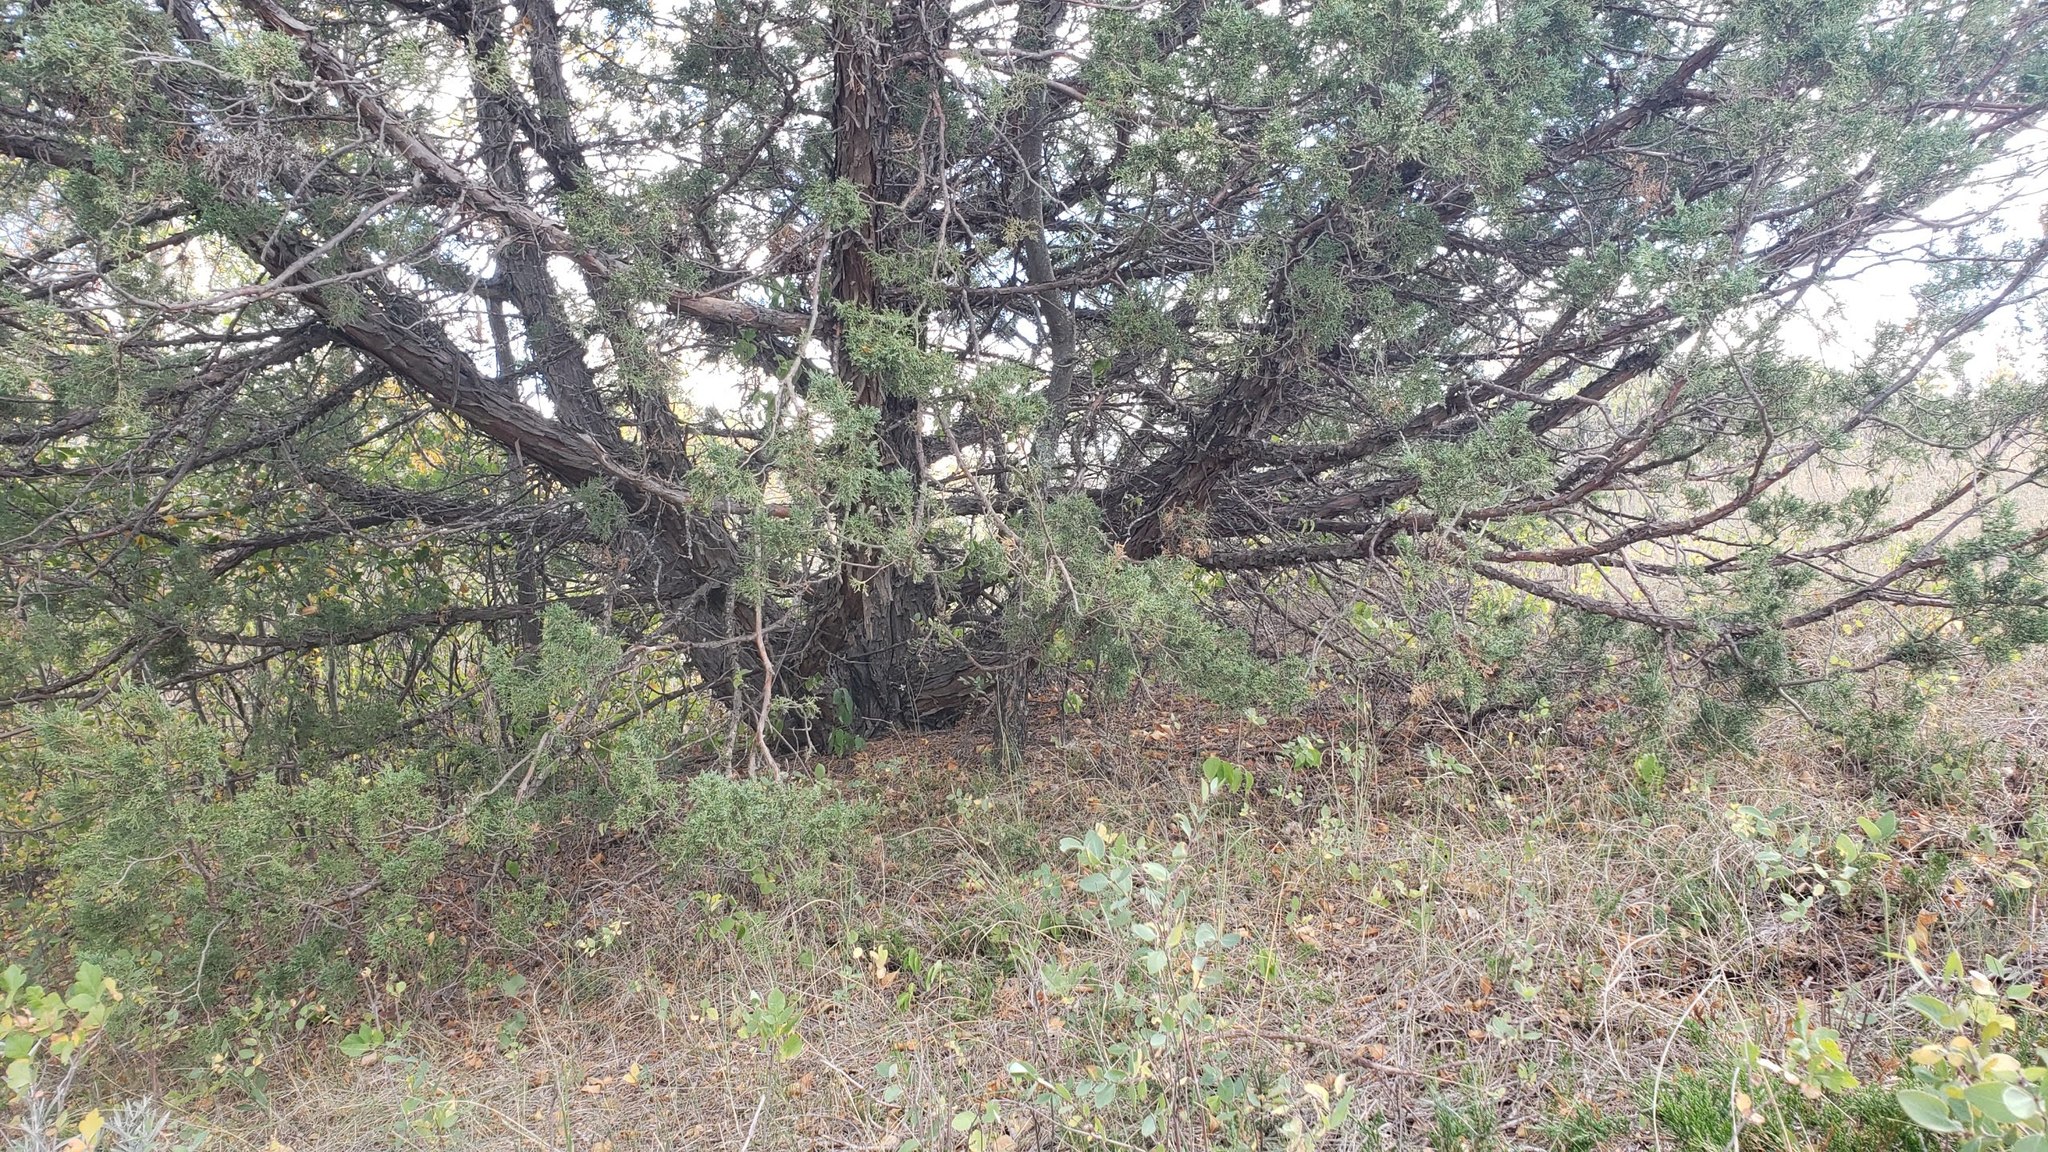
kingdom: Plantae
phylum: Tracheophyta
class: Pinopsida
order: Pinales
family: Cupressaceae
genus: Juniperus
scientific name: Juniperus scopulorum
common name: Rocky mountain juniper
